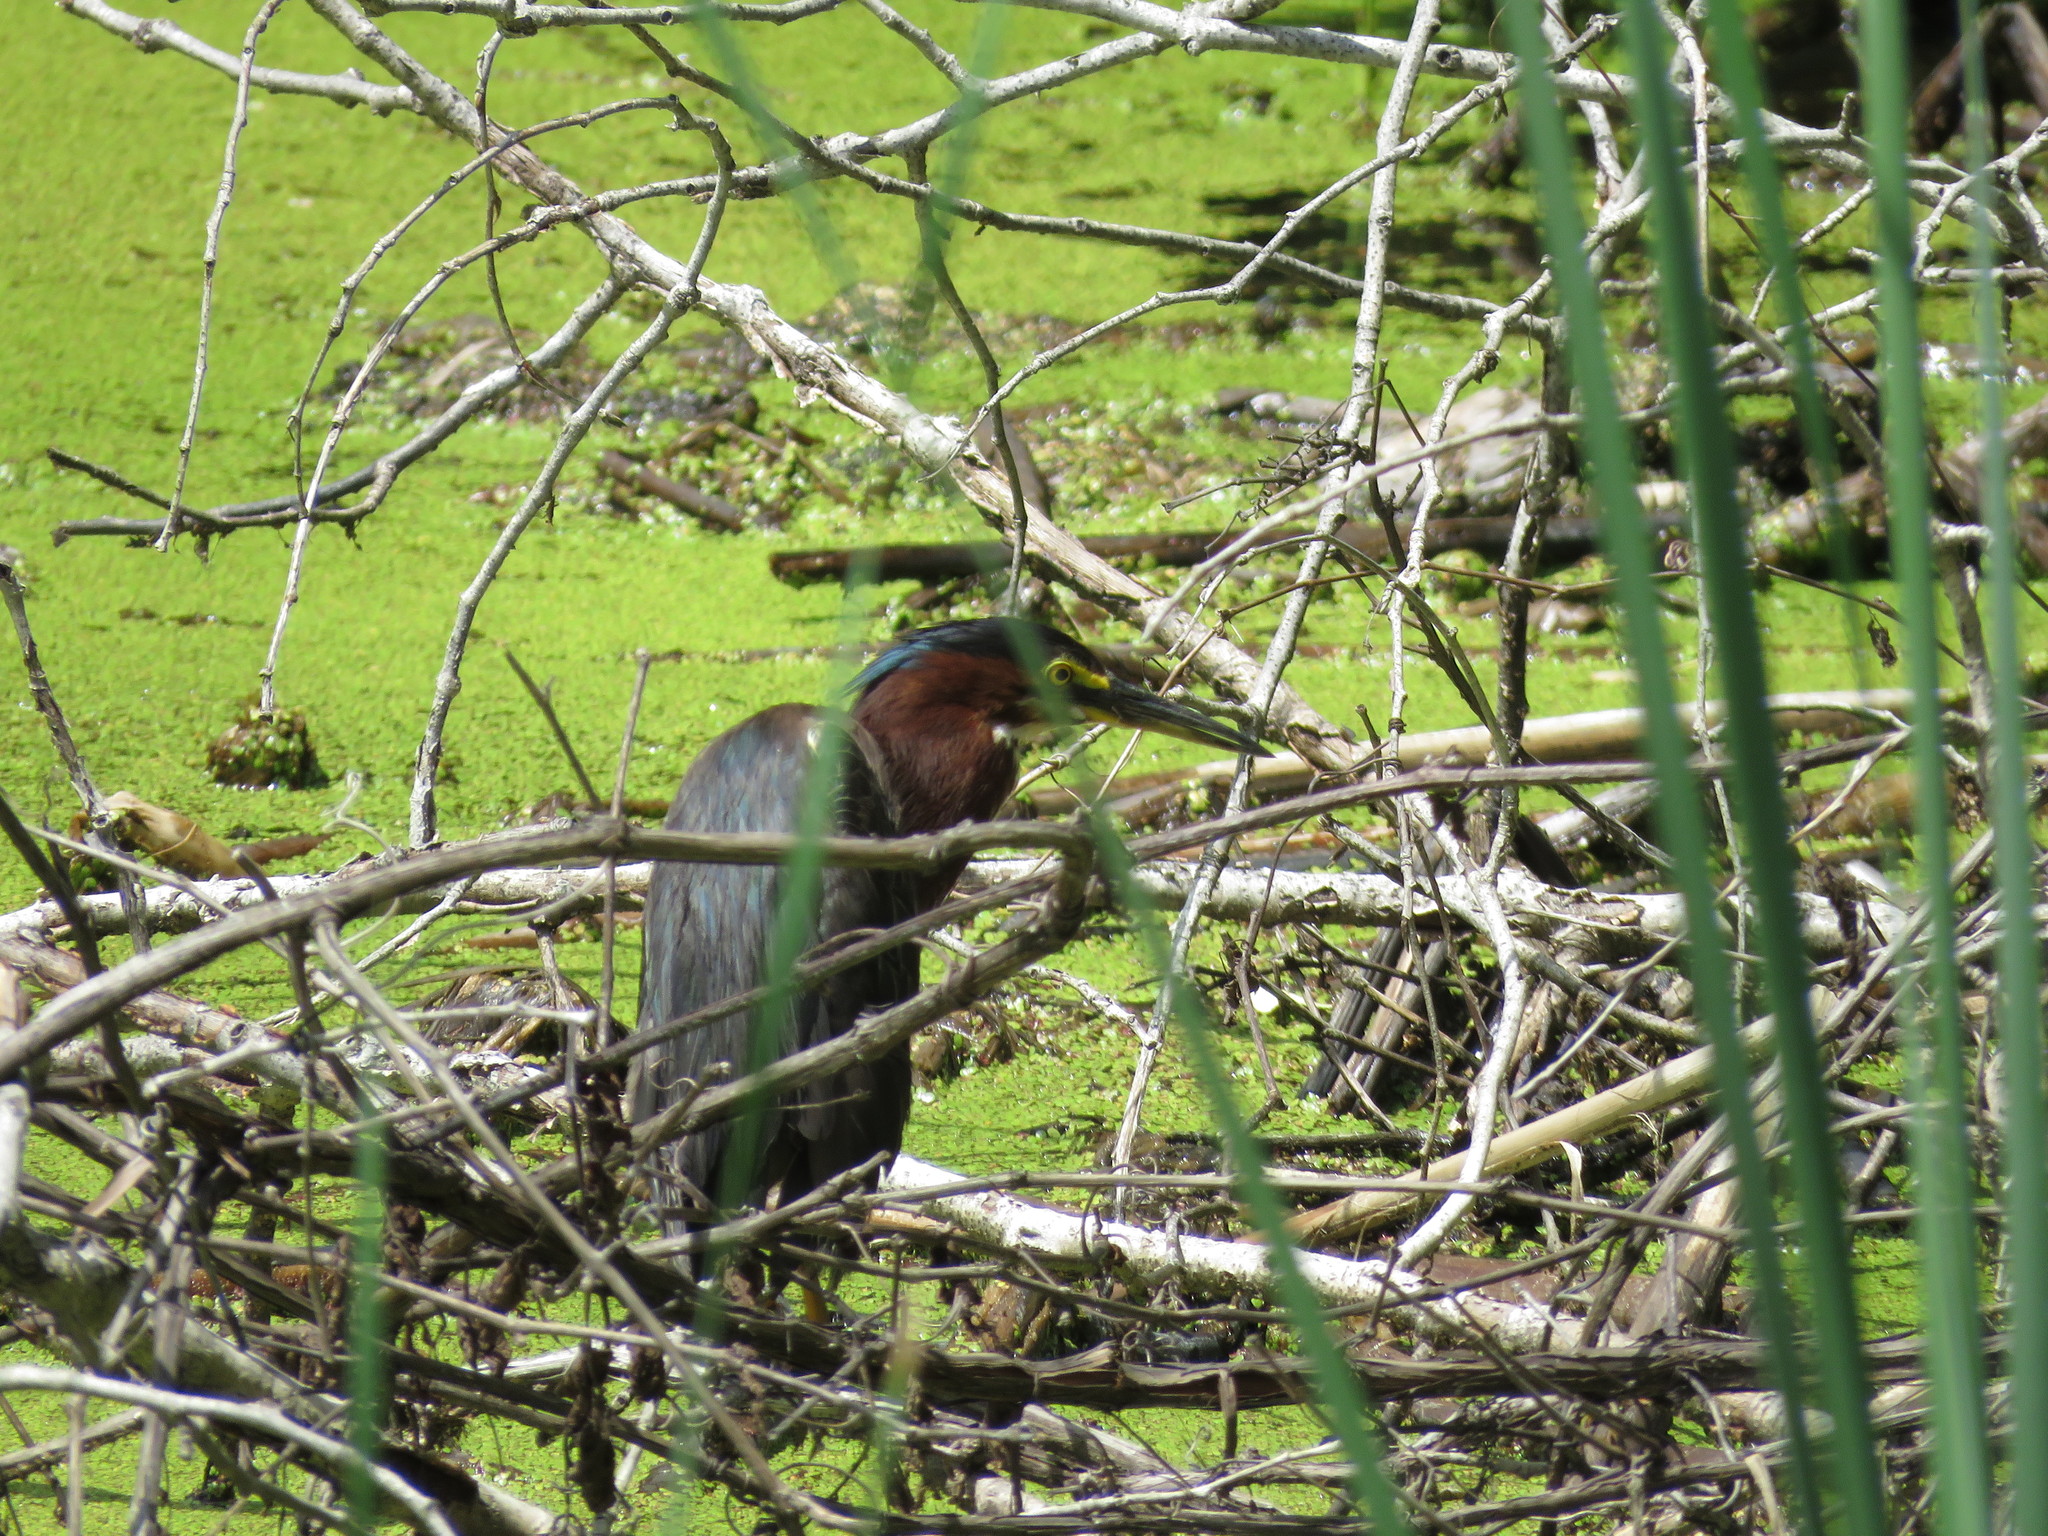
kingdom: Animalia
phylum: Chordata
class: Aves
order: Pelecaniformes
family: Ardeidae
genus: Butorides
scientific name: Butorides virescens
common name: Green heron
